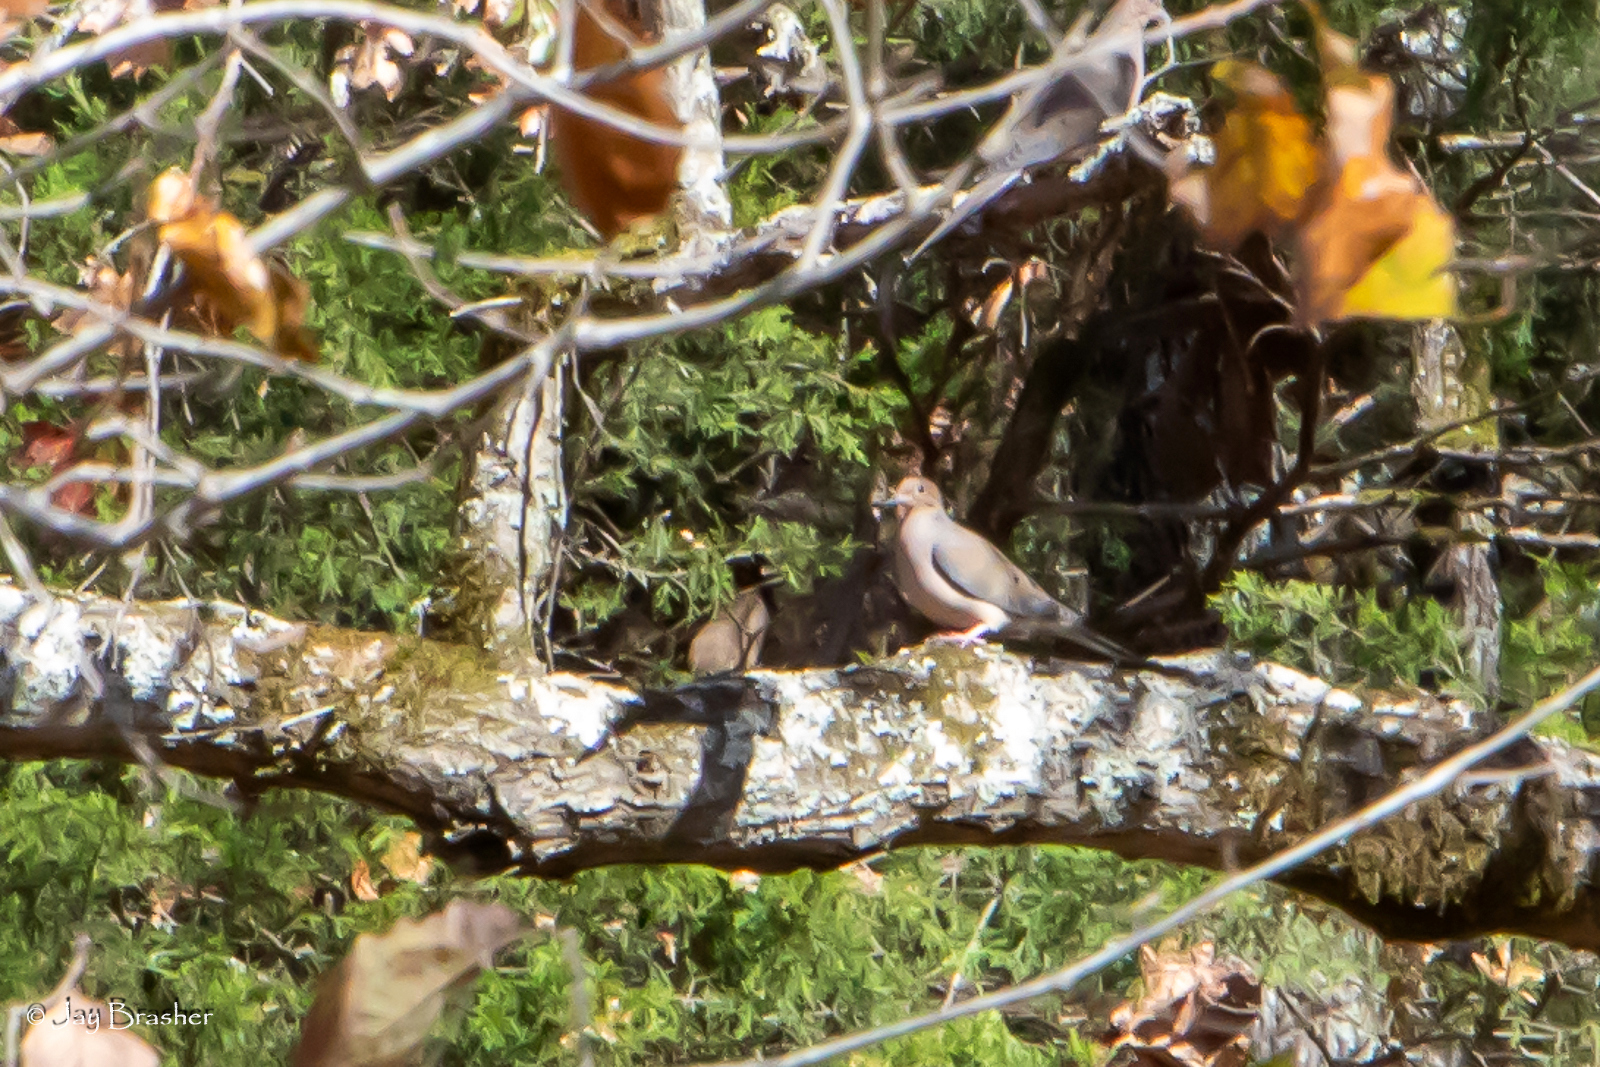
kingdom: Animalia
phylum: Chordata
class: Aves
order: Columbiformes
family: Columbidae
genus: Zenaida
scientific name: Zenaida macroura
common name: Mourning dove
